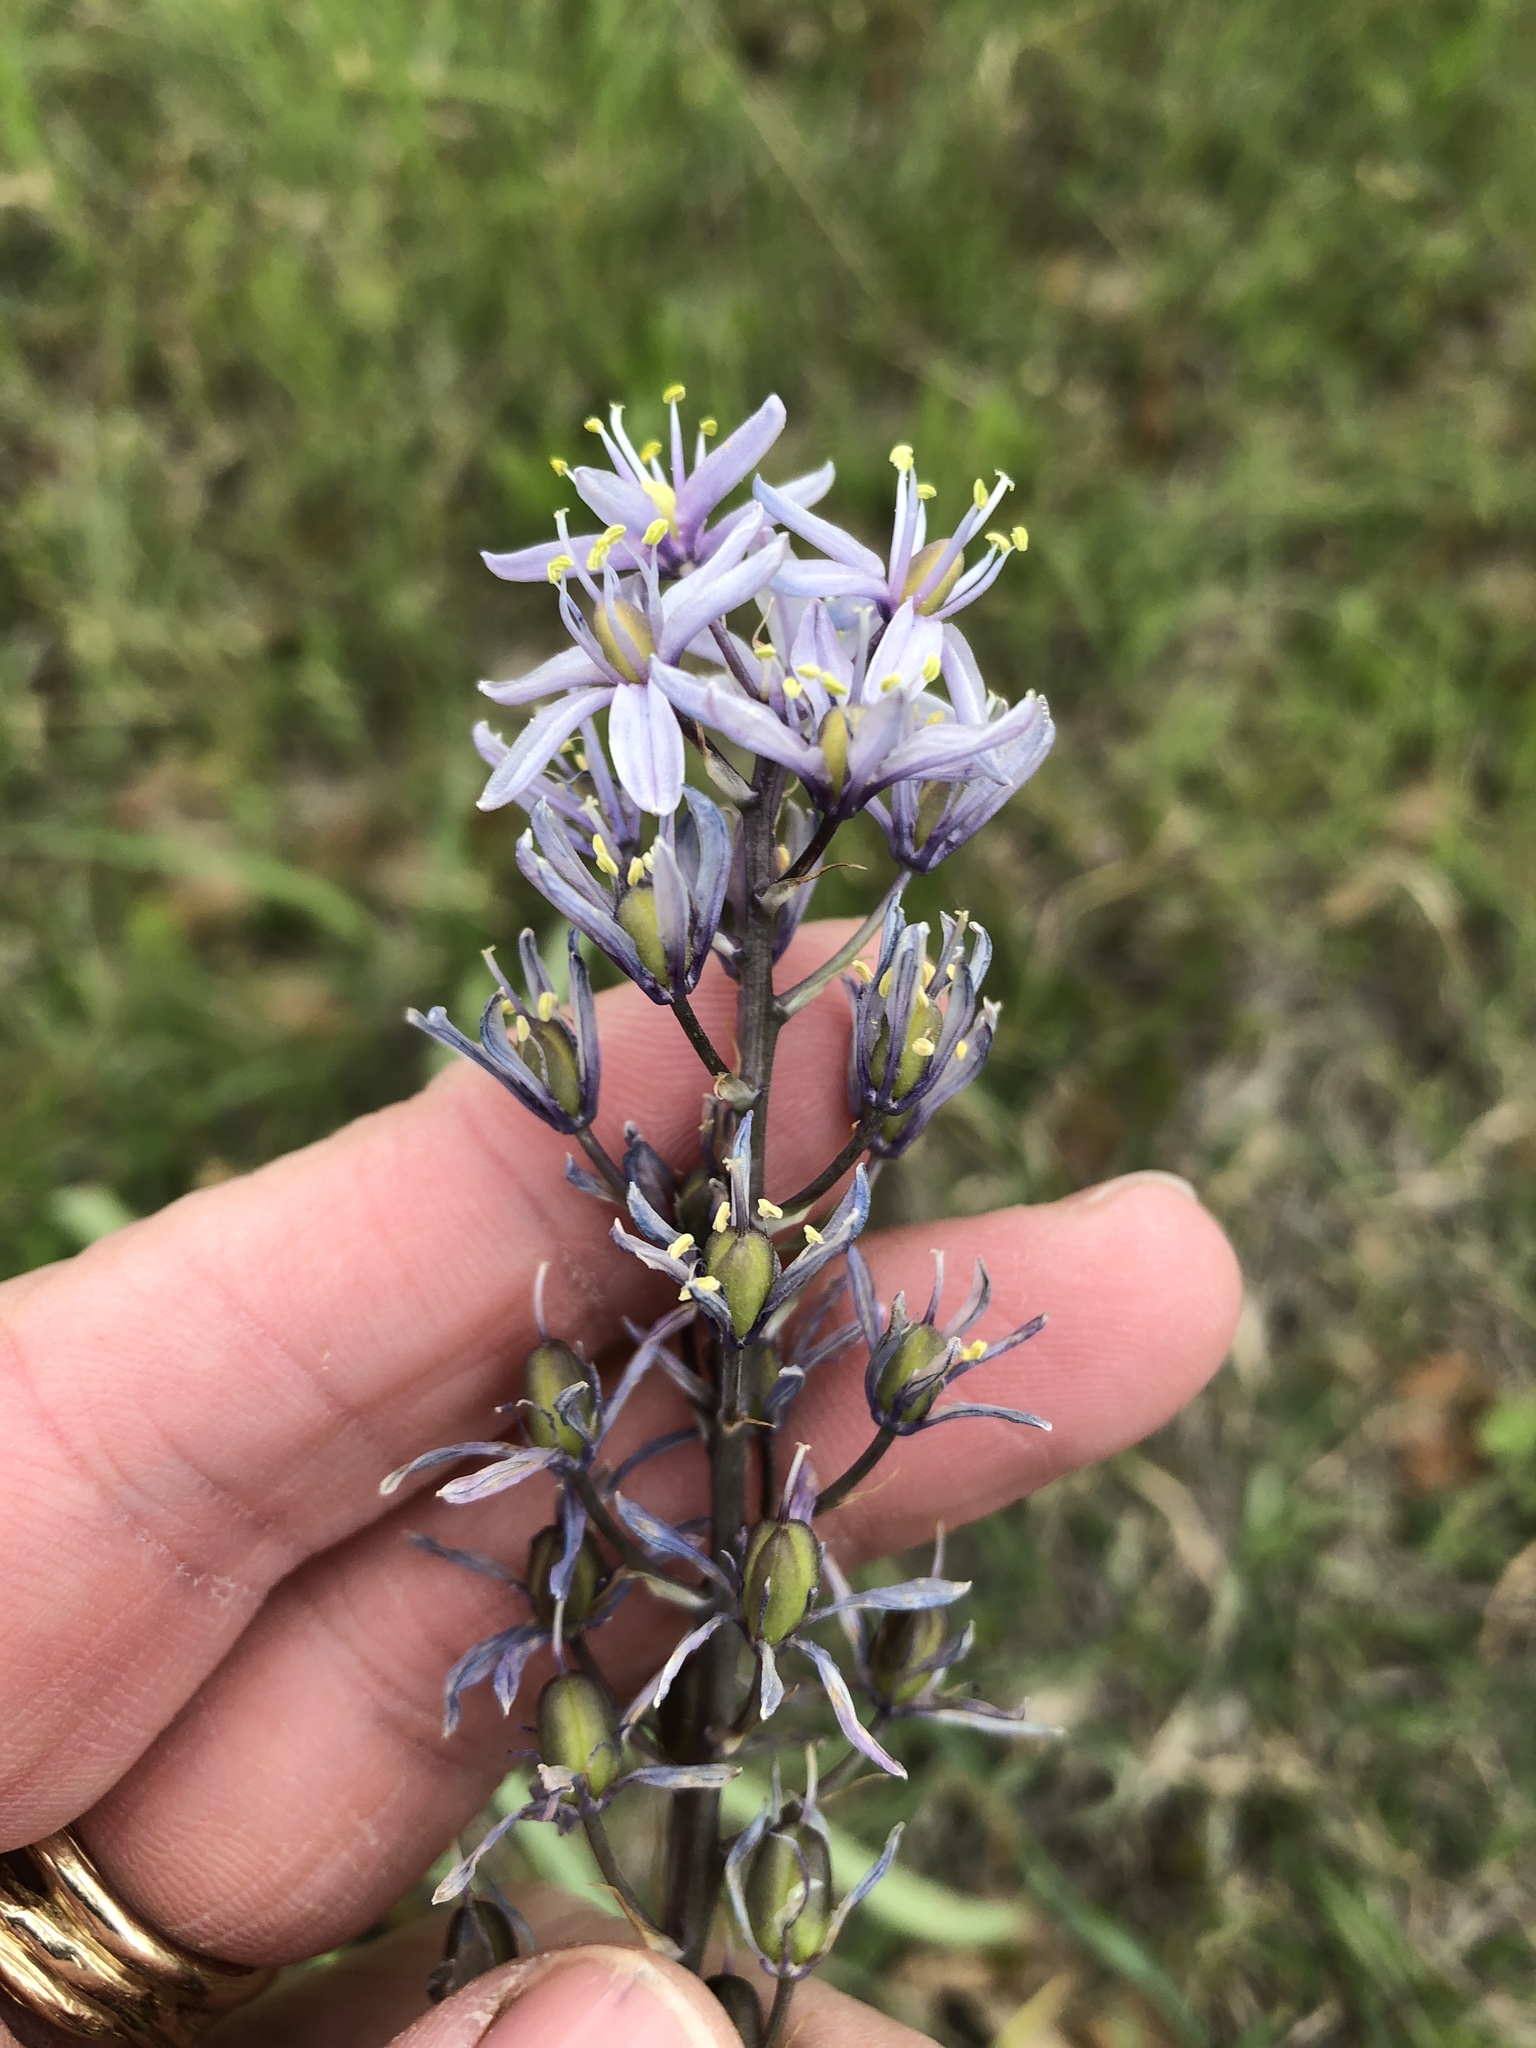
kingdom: Plantae
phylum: Tracheophyta
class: Liliopsida
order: Asparagales
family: Asparagaceae
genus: Camassia
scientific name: Camassia scilloides
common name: Wild hyacinth
